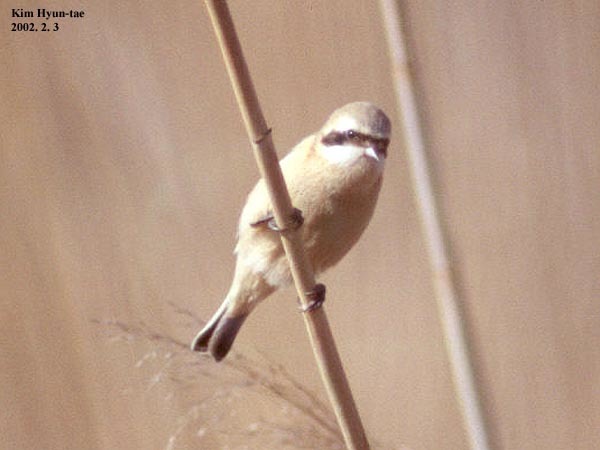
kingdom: Animalia
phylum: Chordata
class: Aves
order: Passeriformes
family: Remizidae
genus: Remiz
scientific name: Remiz consobrinus
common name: Chinese penduline tit
